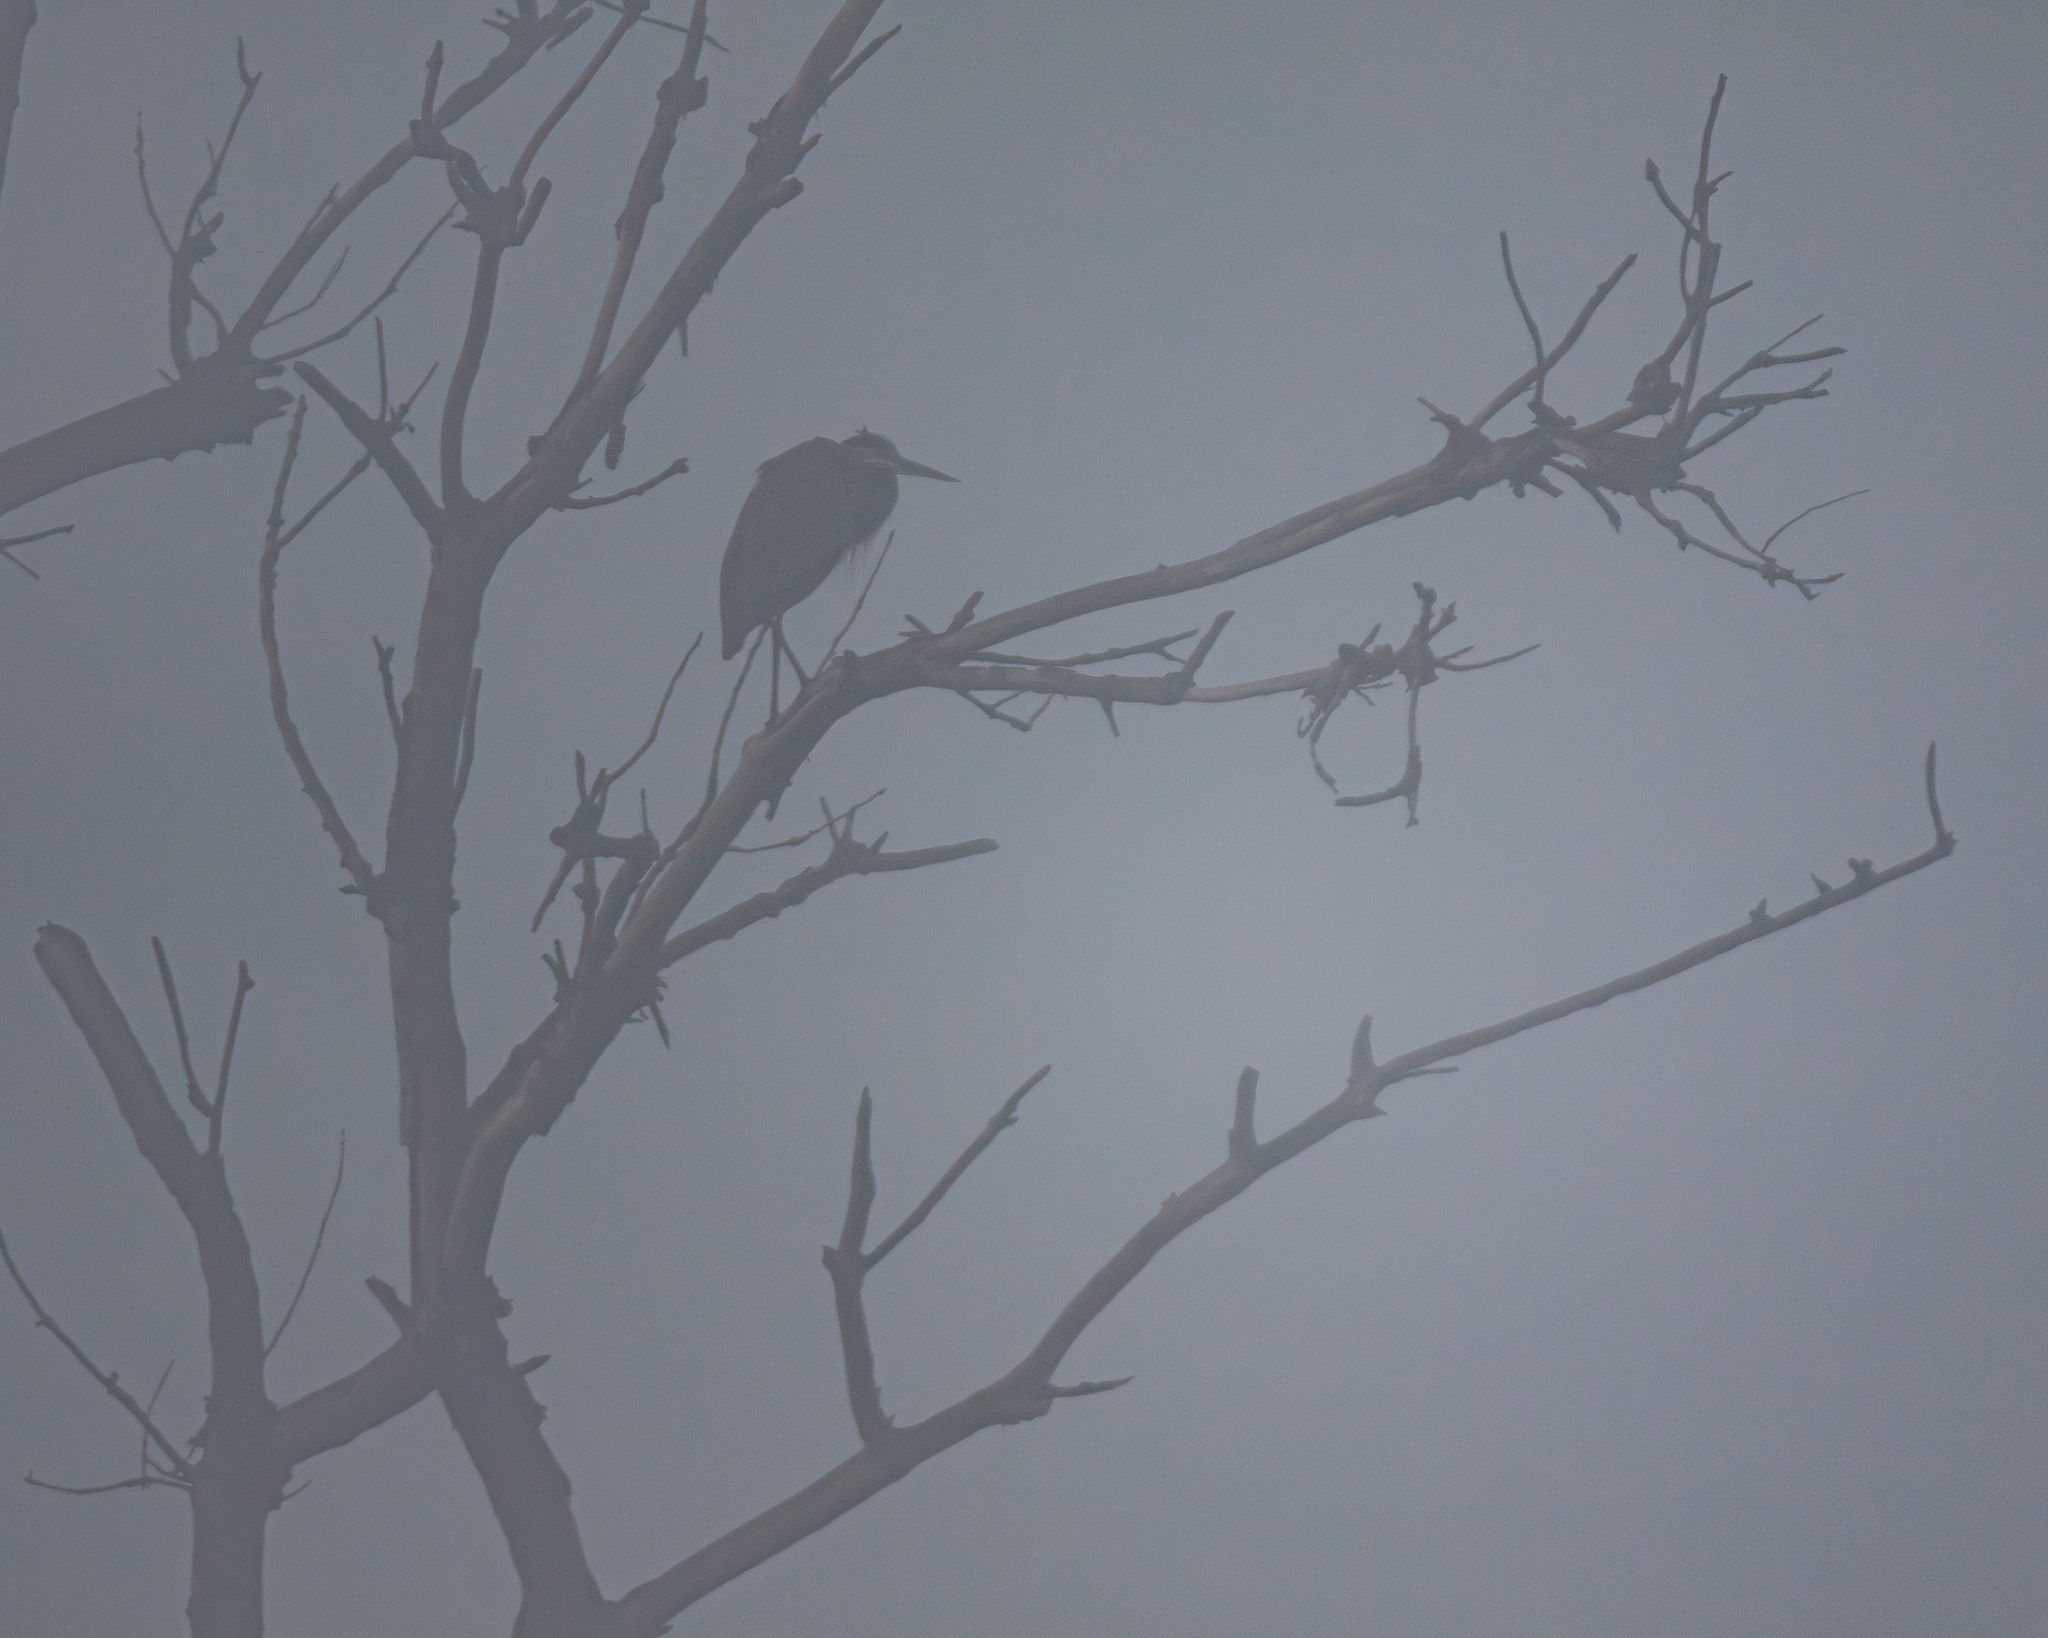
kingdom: Animalia
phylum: Chordata
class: Aves
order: Pelecaniformes
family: Ardeidae
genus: Ardea
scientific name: Ardea herodias
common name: Great blue heron
